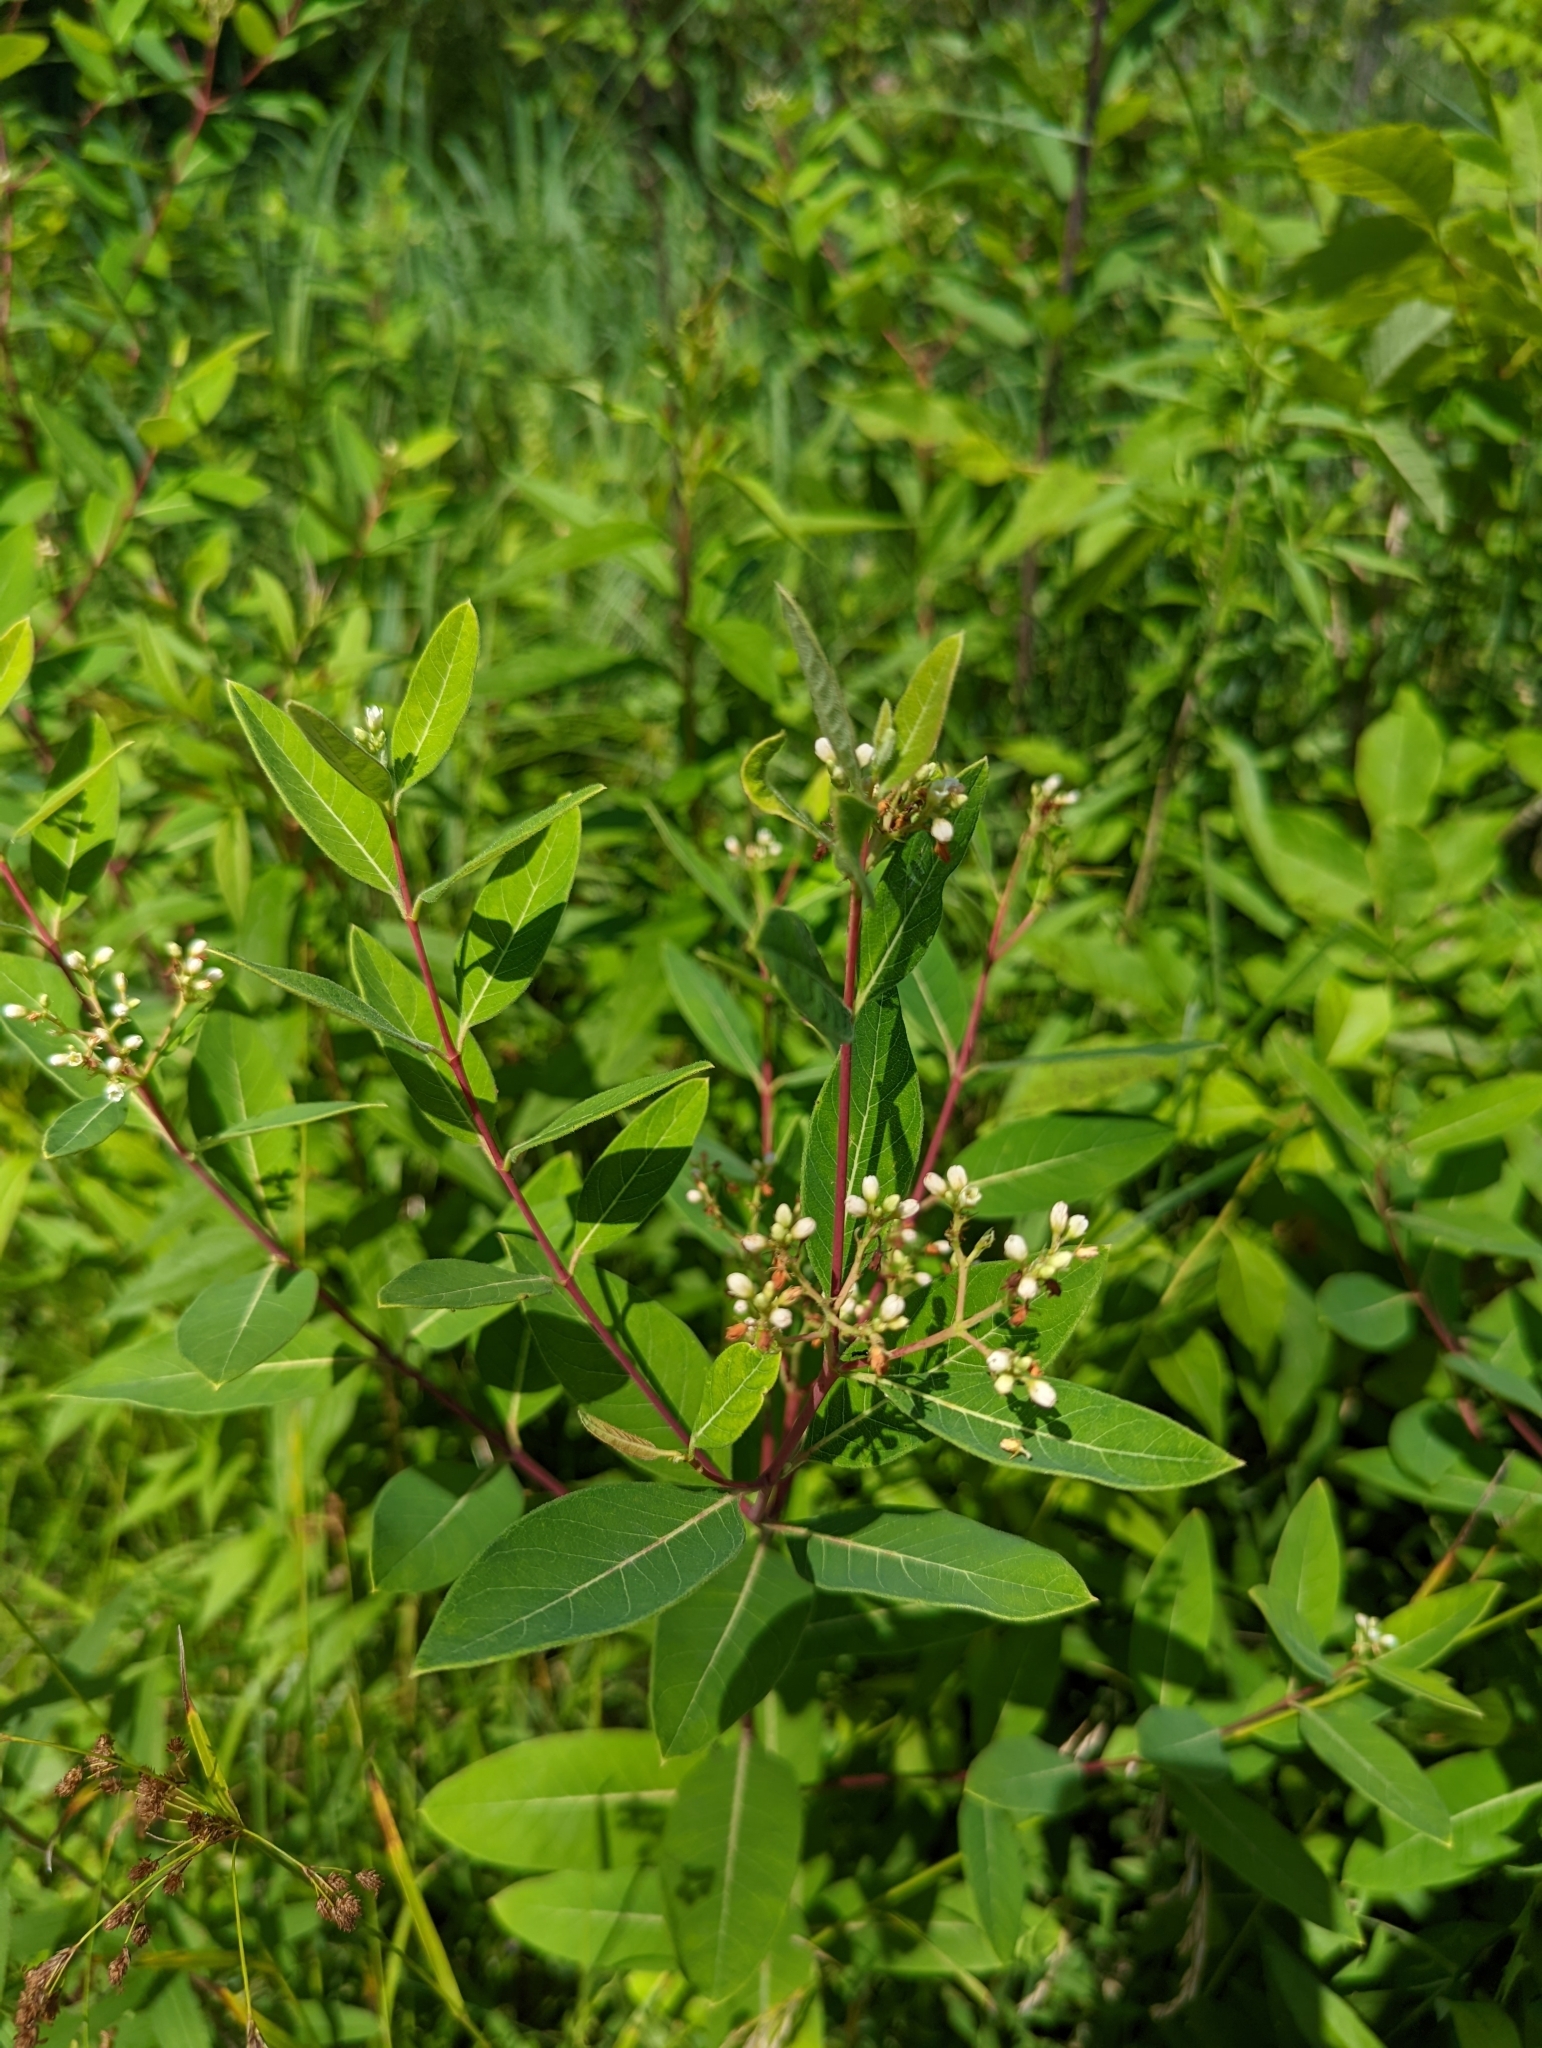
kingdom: Plantae
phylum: Tracheophyta
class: Magnoliopsida
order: Gentianales
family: Apocynaceae
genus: Apocynum
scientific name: Apocynum cannabinum
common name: Hemp dogbane
